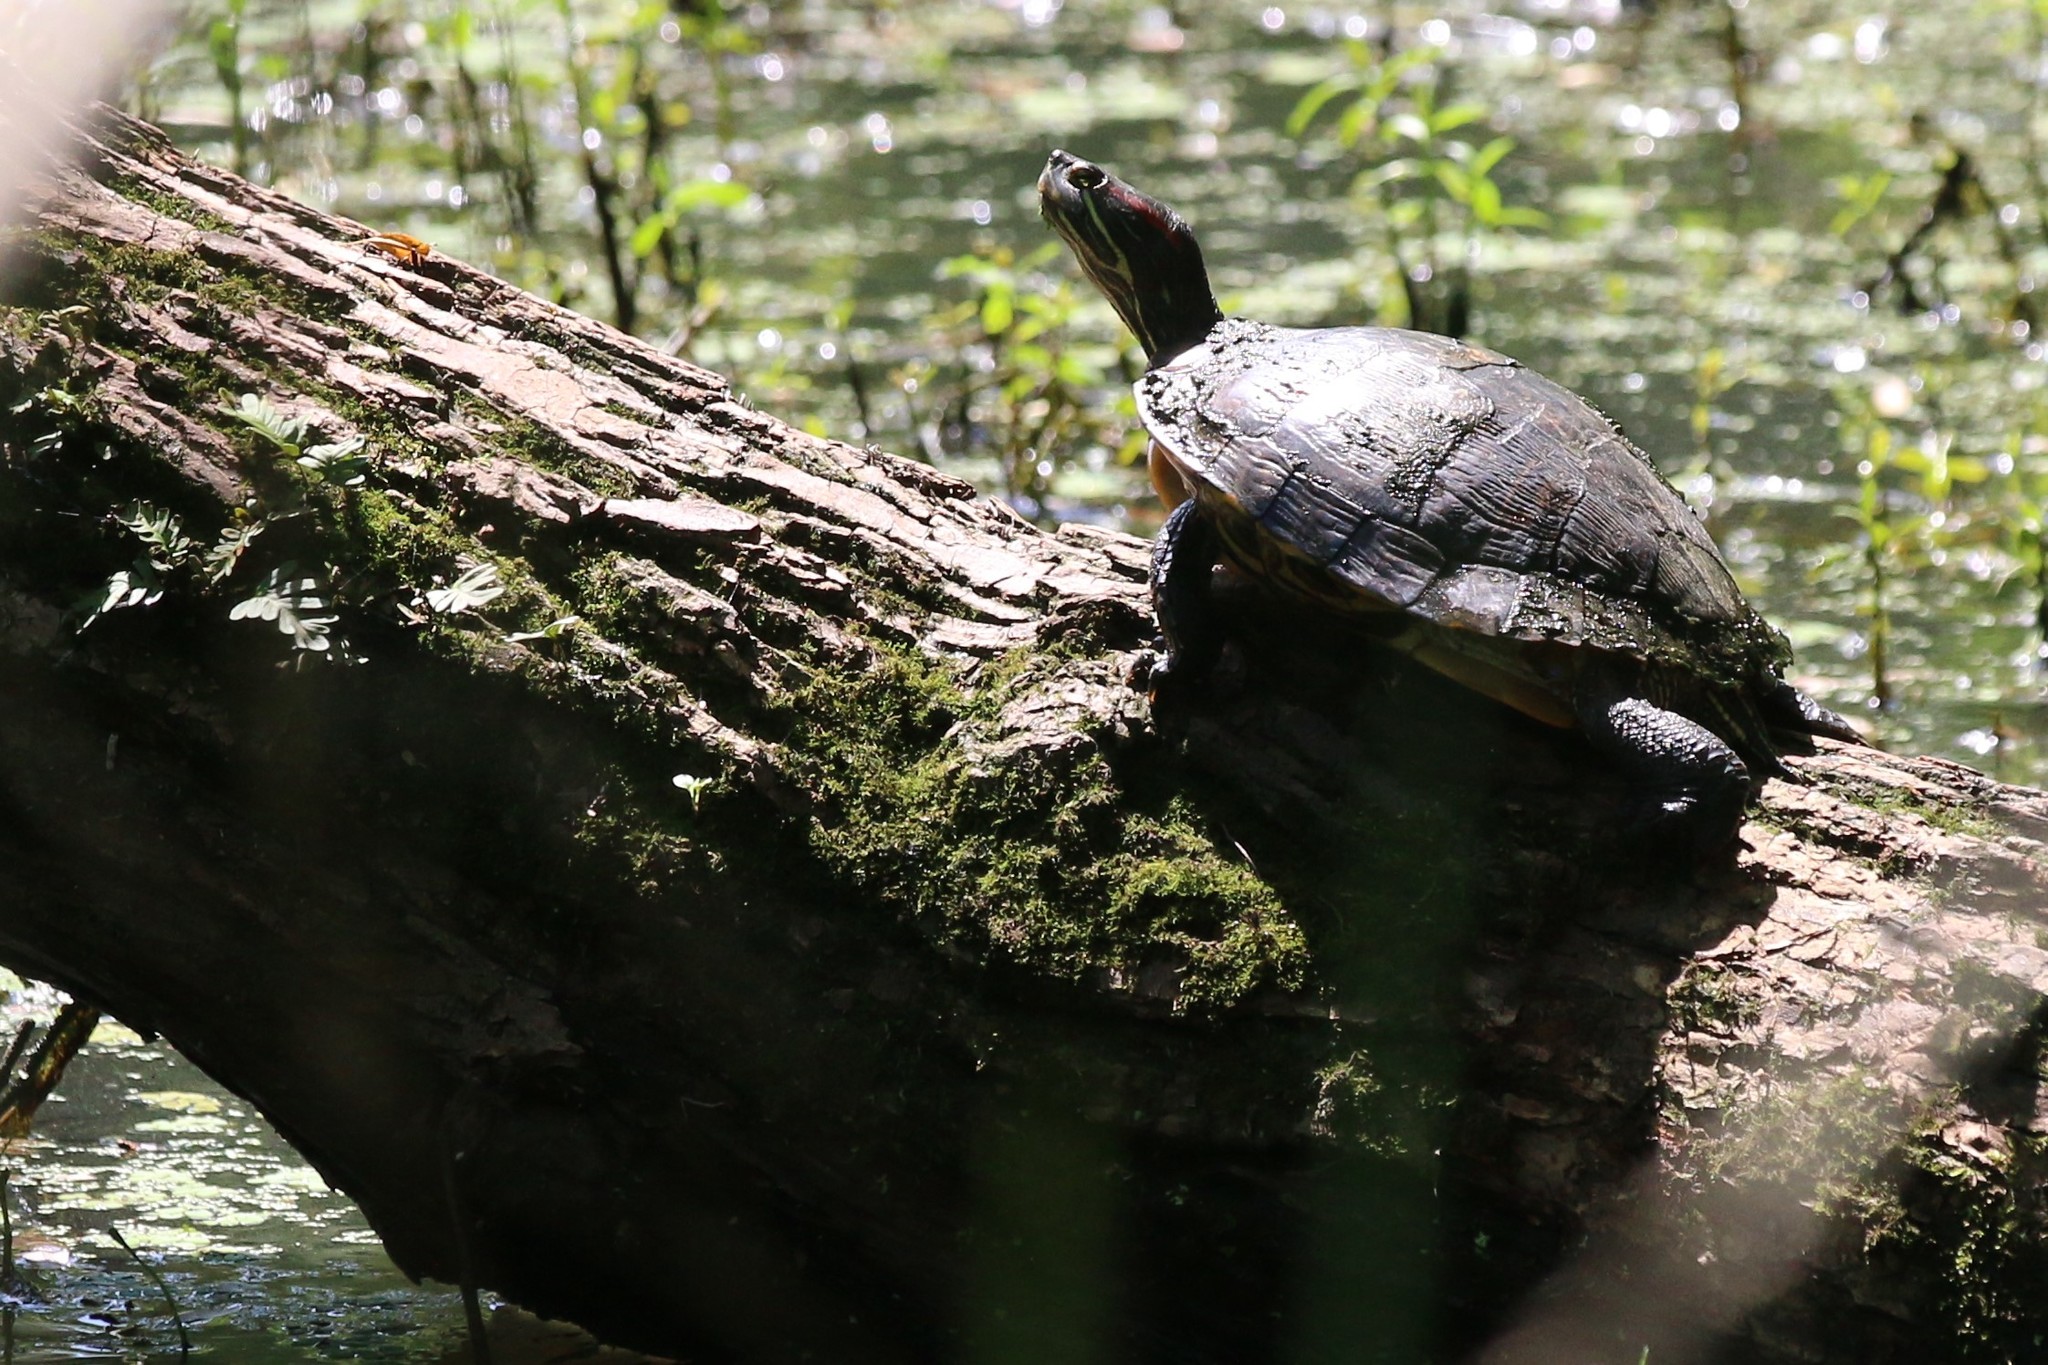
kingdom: Animalia
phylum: Chordata
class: Testudines
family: Emydidae
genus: Trachemys
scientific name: Trachemys scripta
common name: Slider
